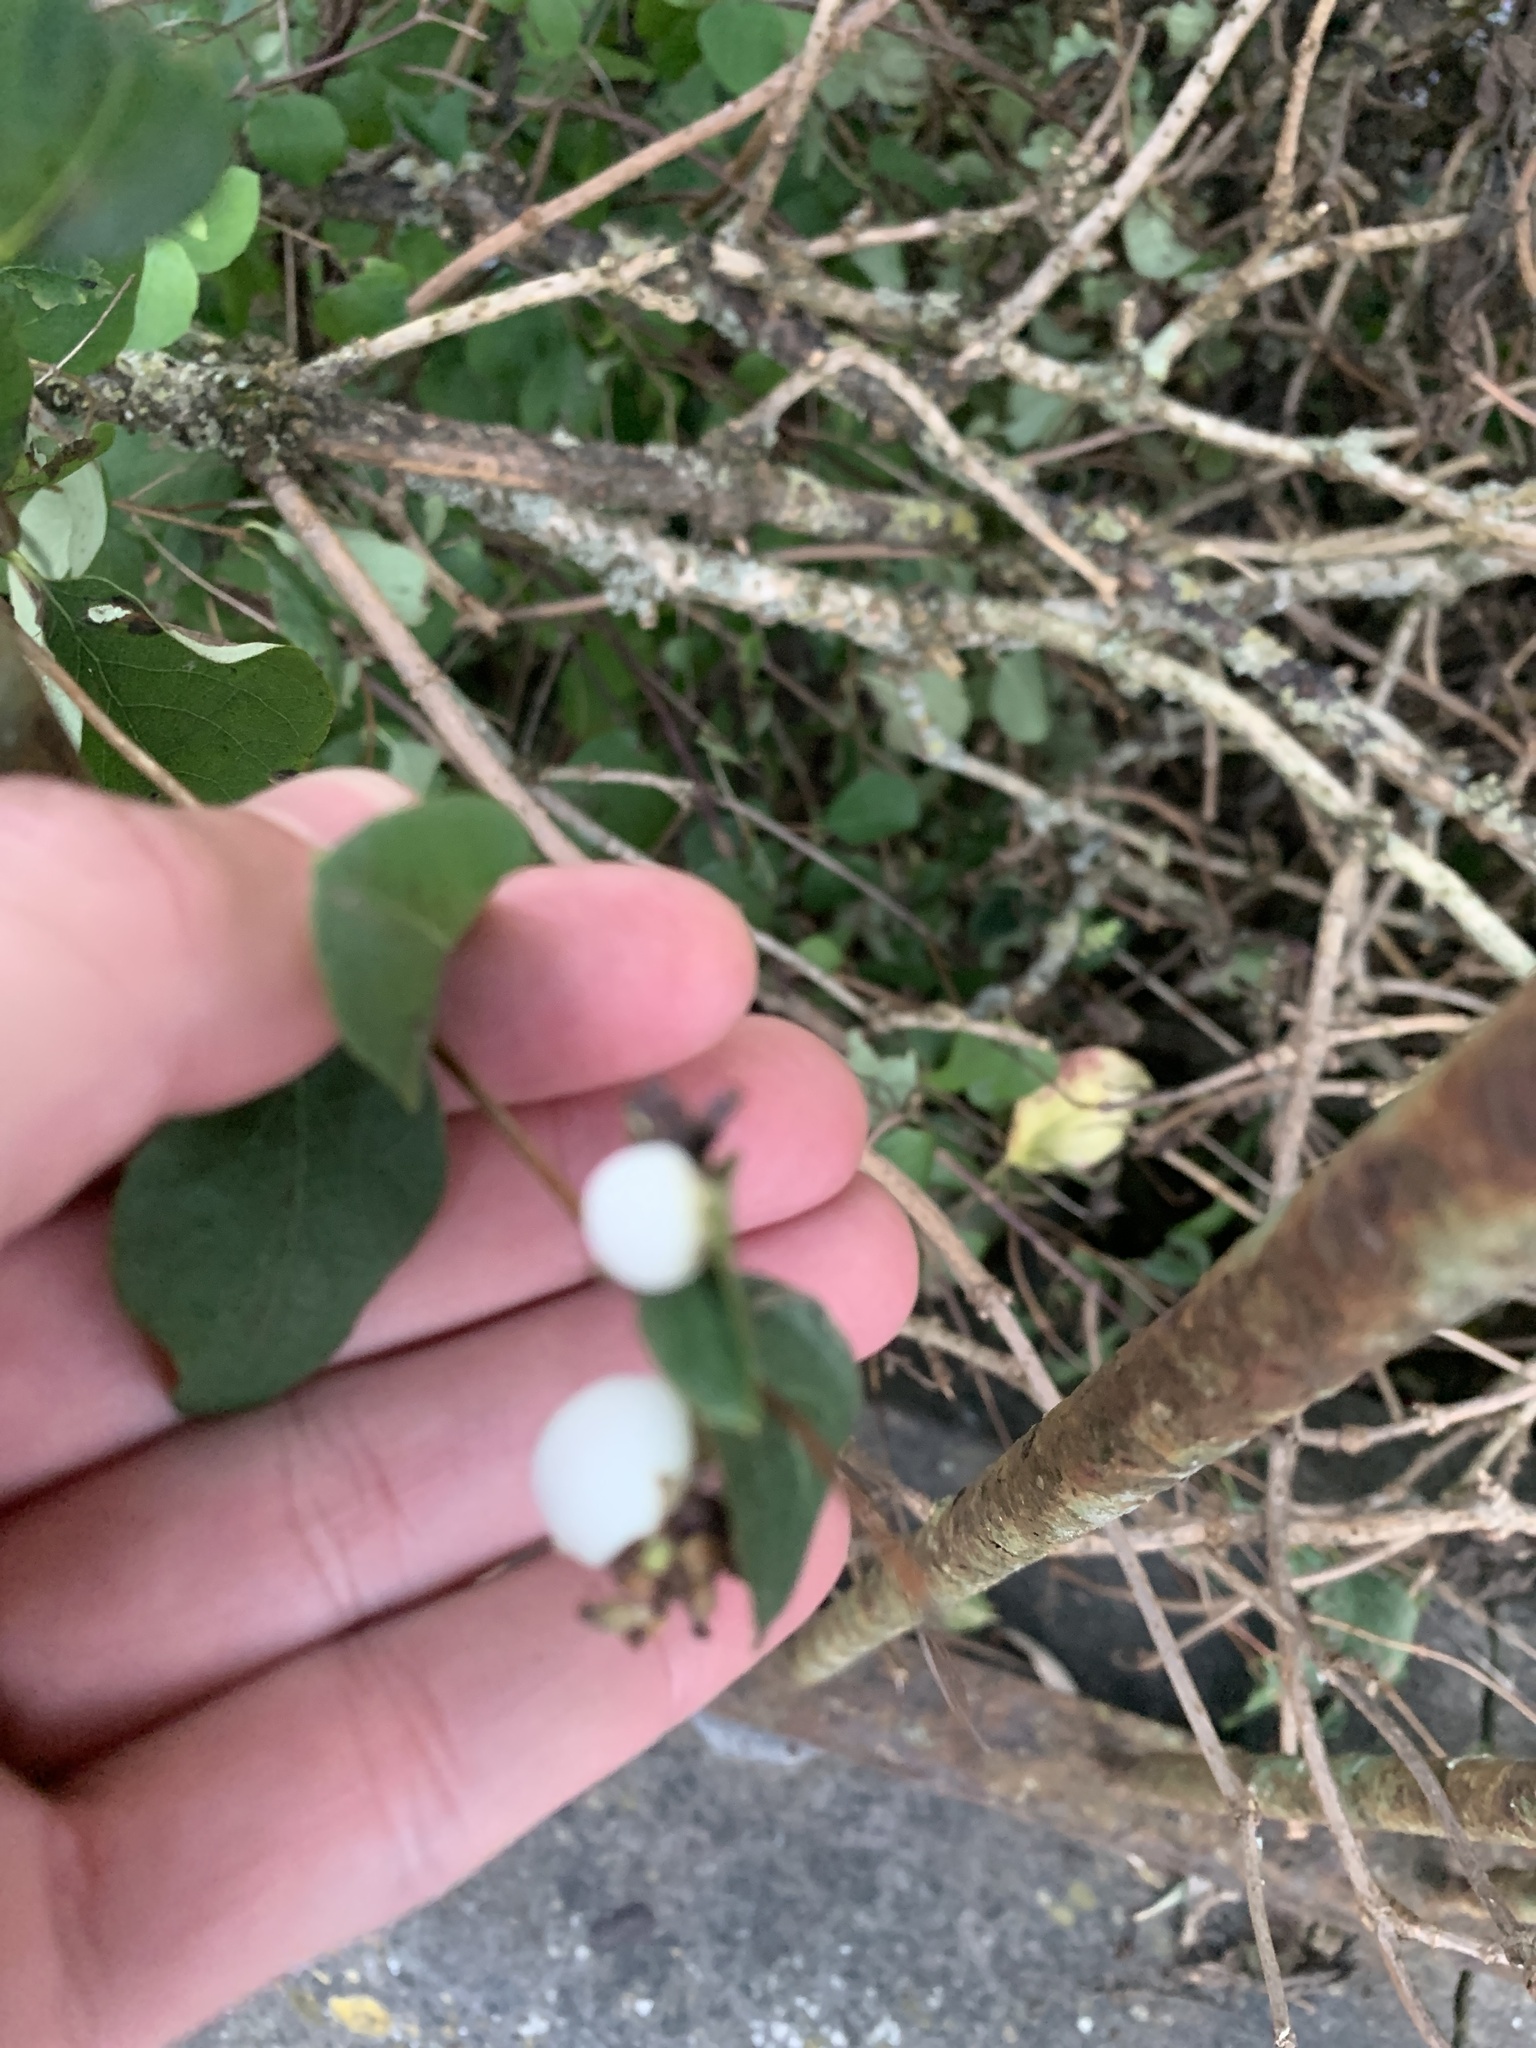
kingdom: Plantae
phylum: Tracheophyta
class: Magnoliopsida
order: Dipsacales
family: Caprifoliaceae
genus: Symphoricarpos
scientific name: Symphoricarpos albus
